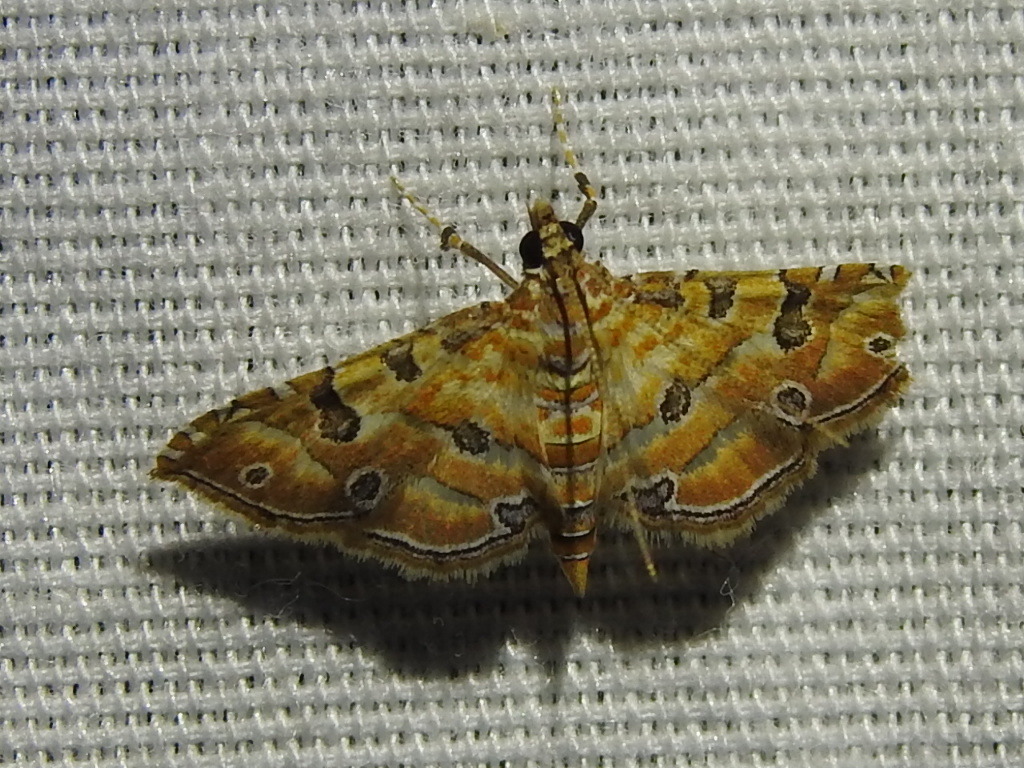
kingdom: Animalia
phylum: Arthropoda
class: Insecta
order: Lepidoptera
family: Crambidae
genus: Ommatospila
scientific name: Ommatospila narcaeusalis
